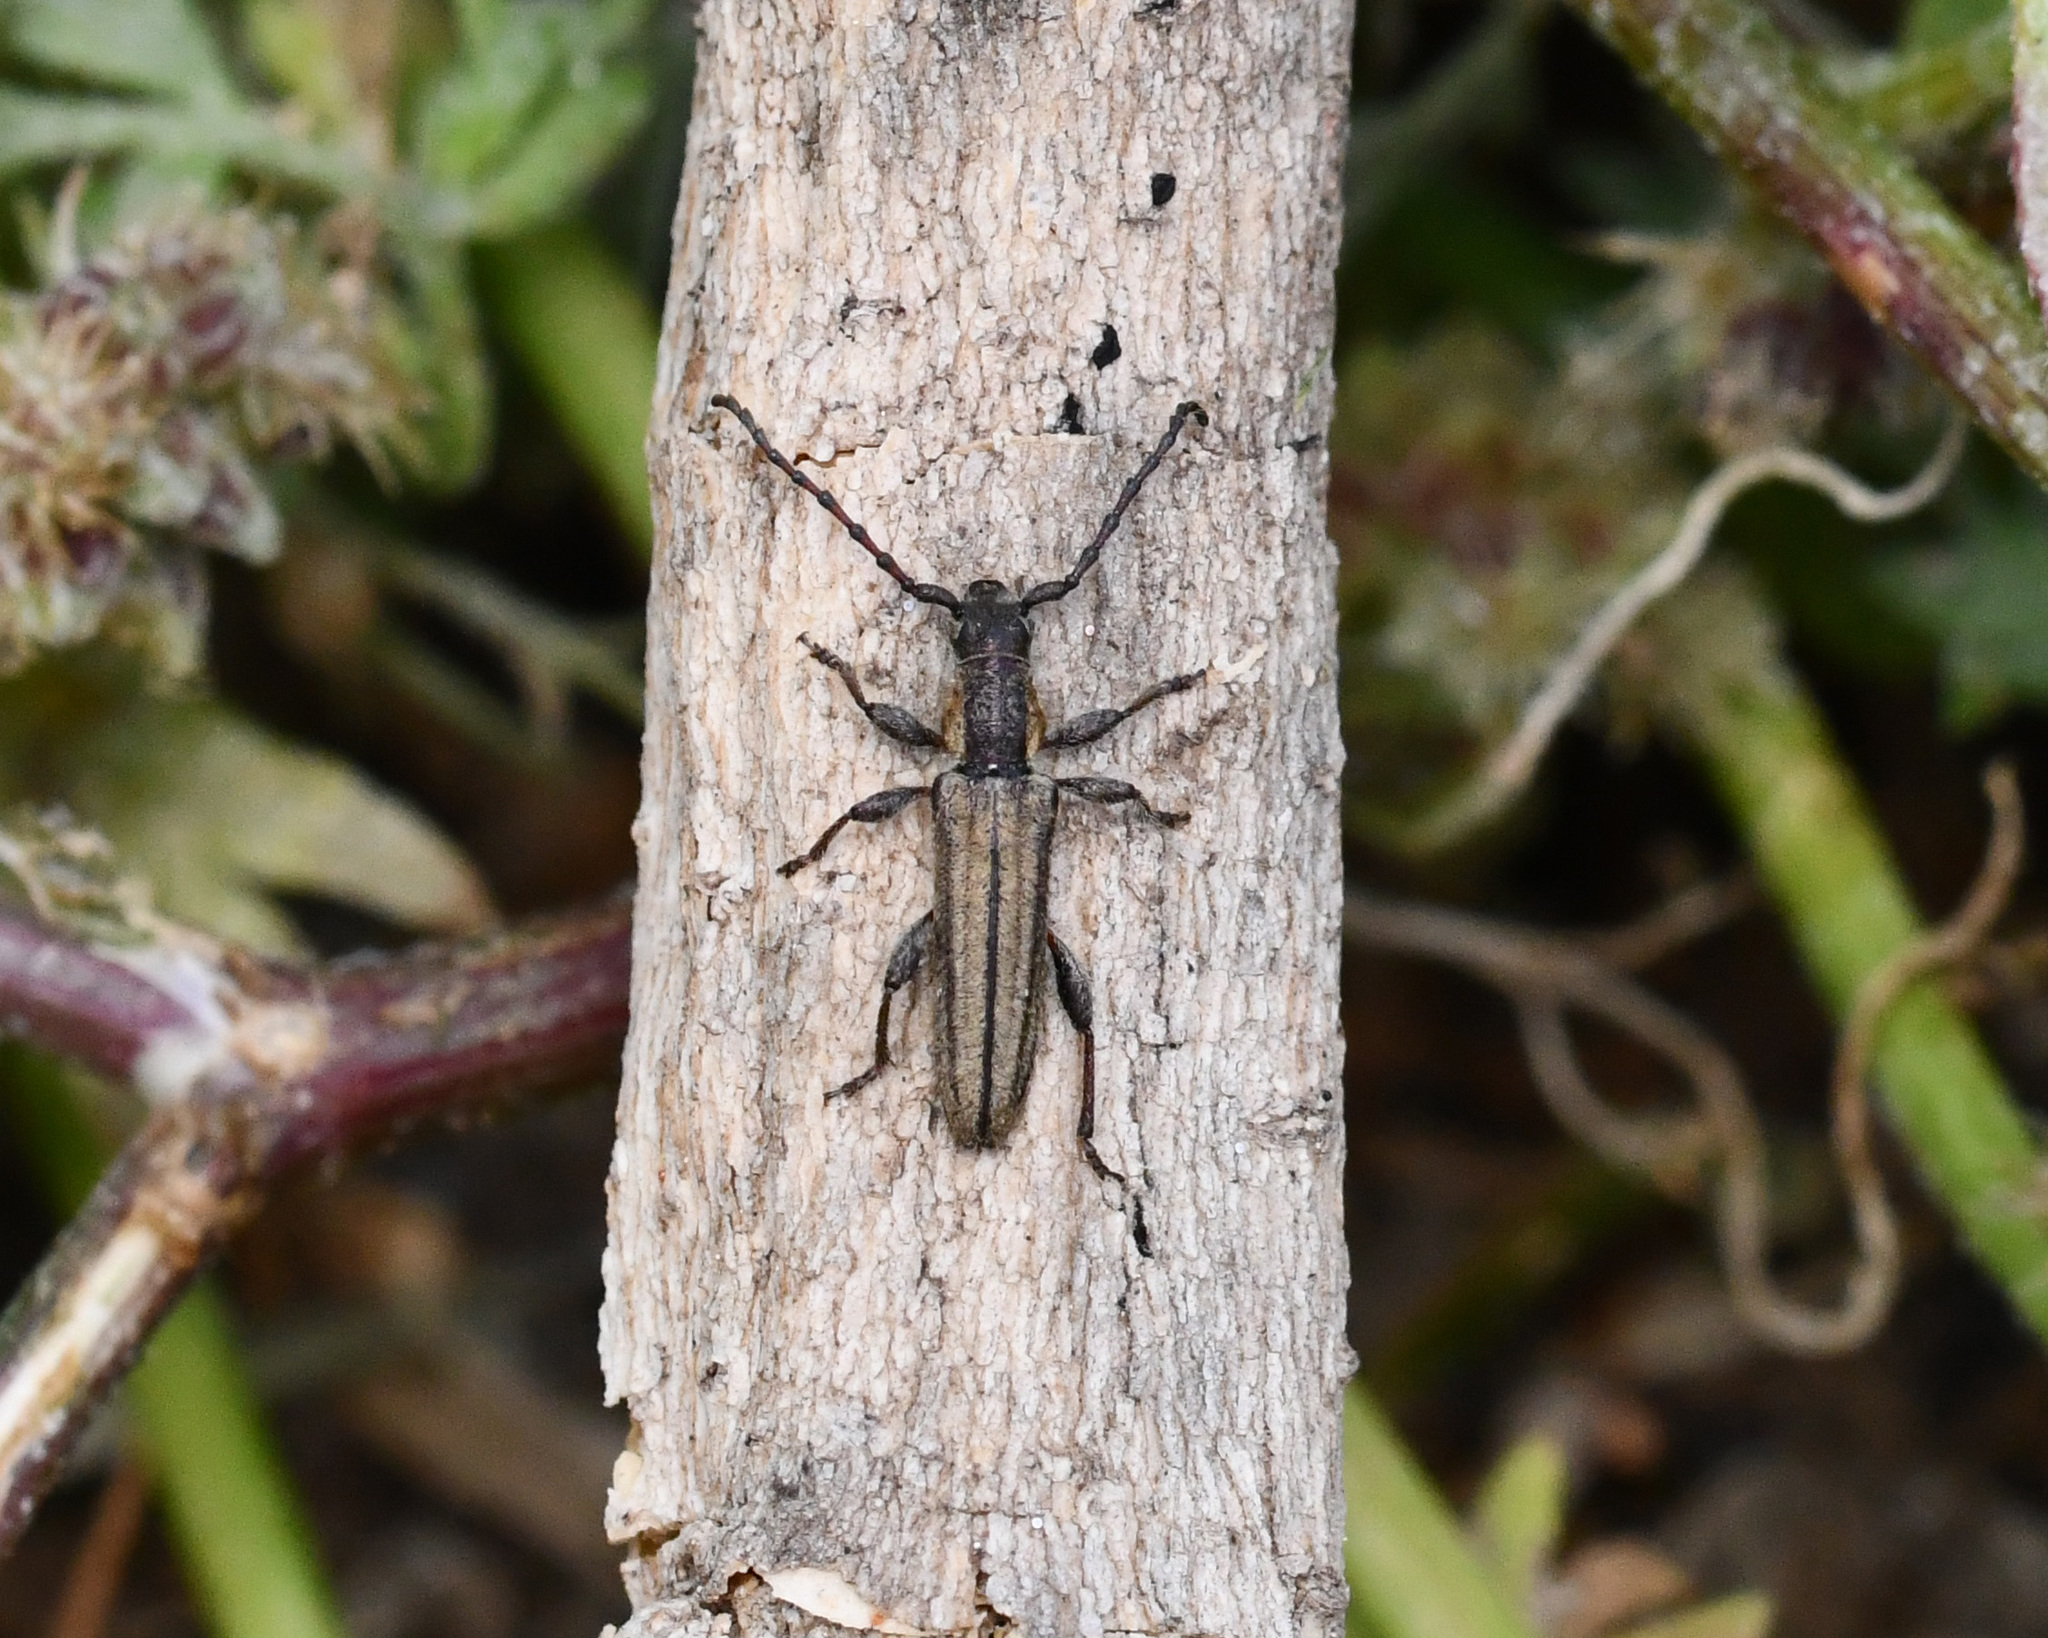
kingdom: Animalia
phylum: Arthropoda
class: Insecta
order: Coleoptera
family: Cerambycidae
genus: Deilus
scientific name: Deilus rugosicollis
